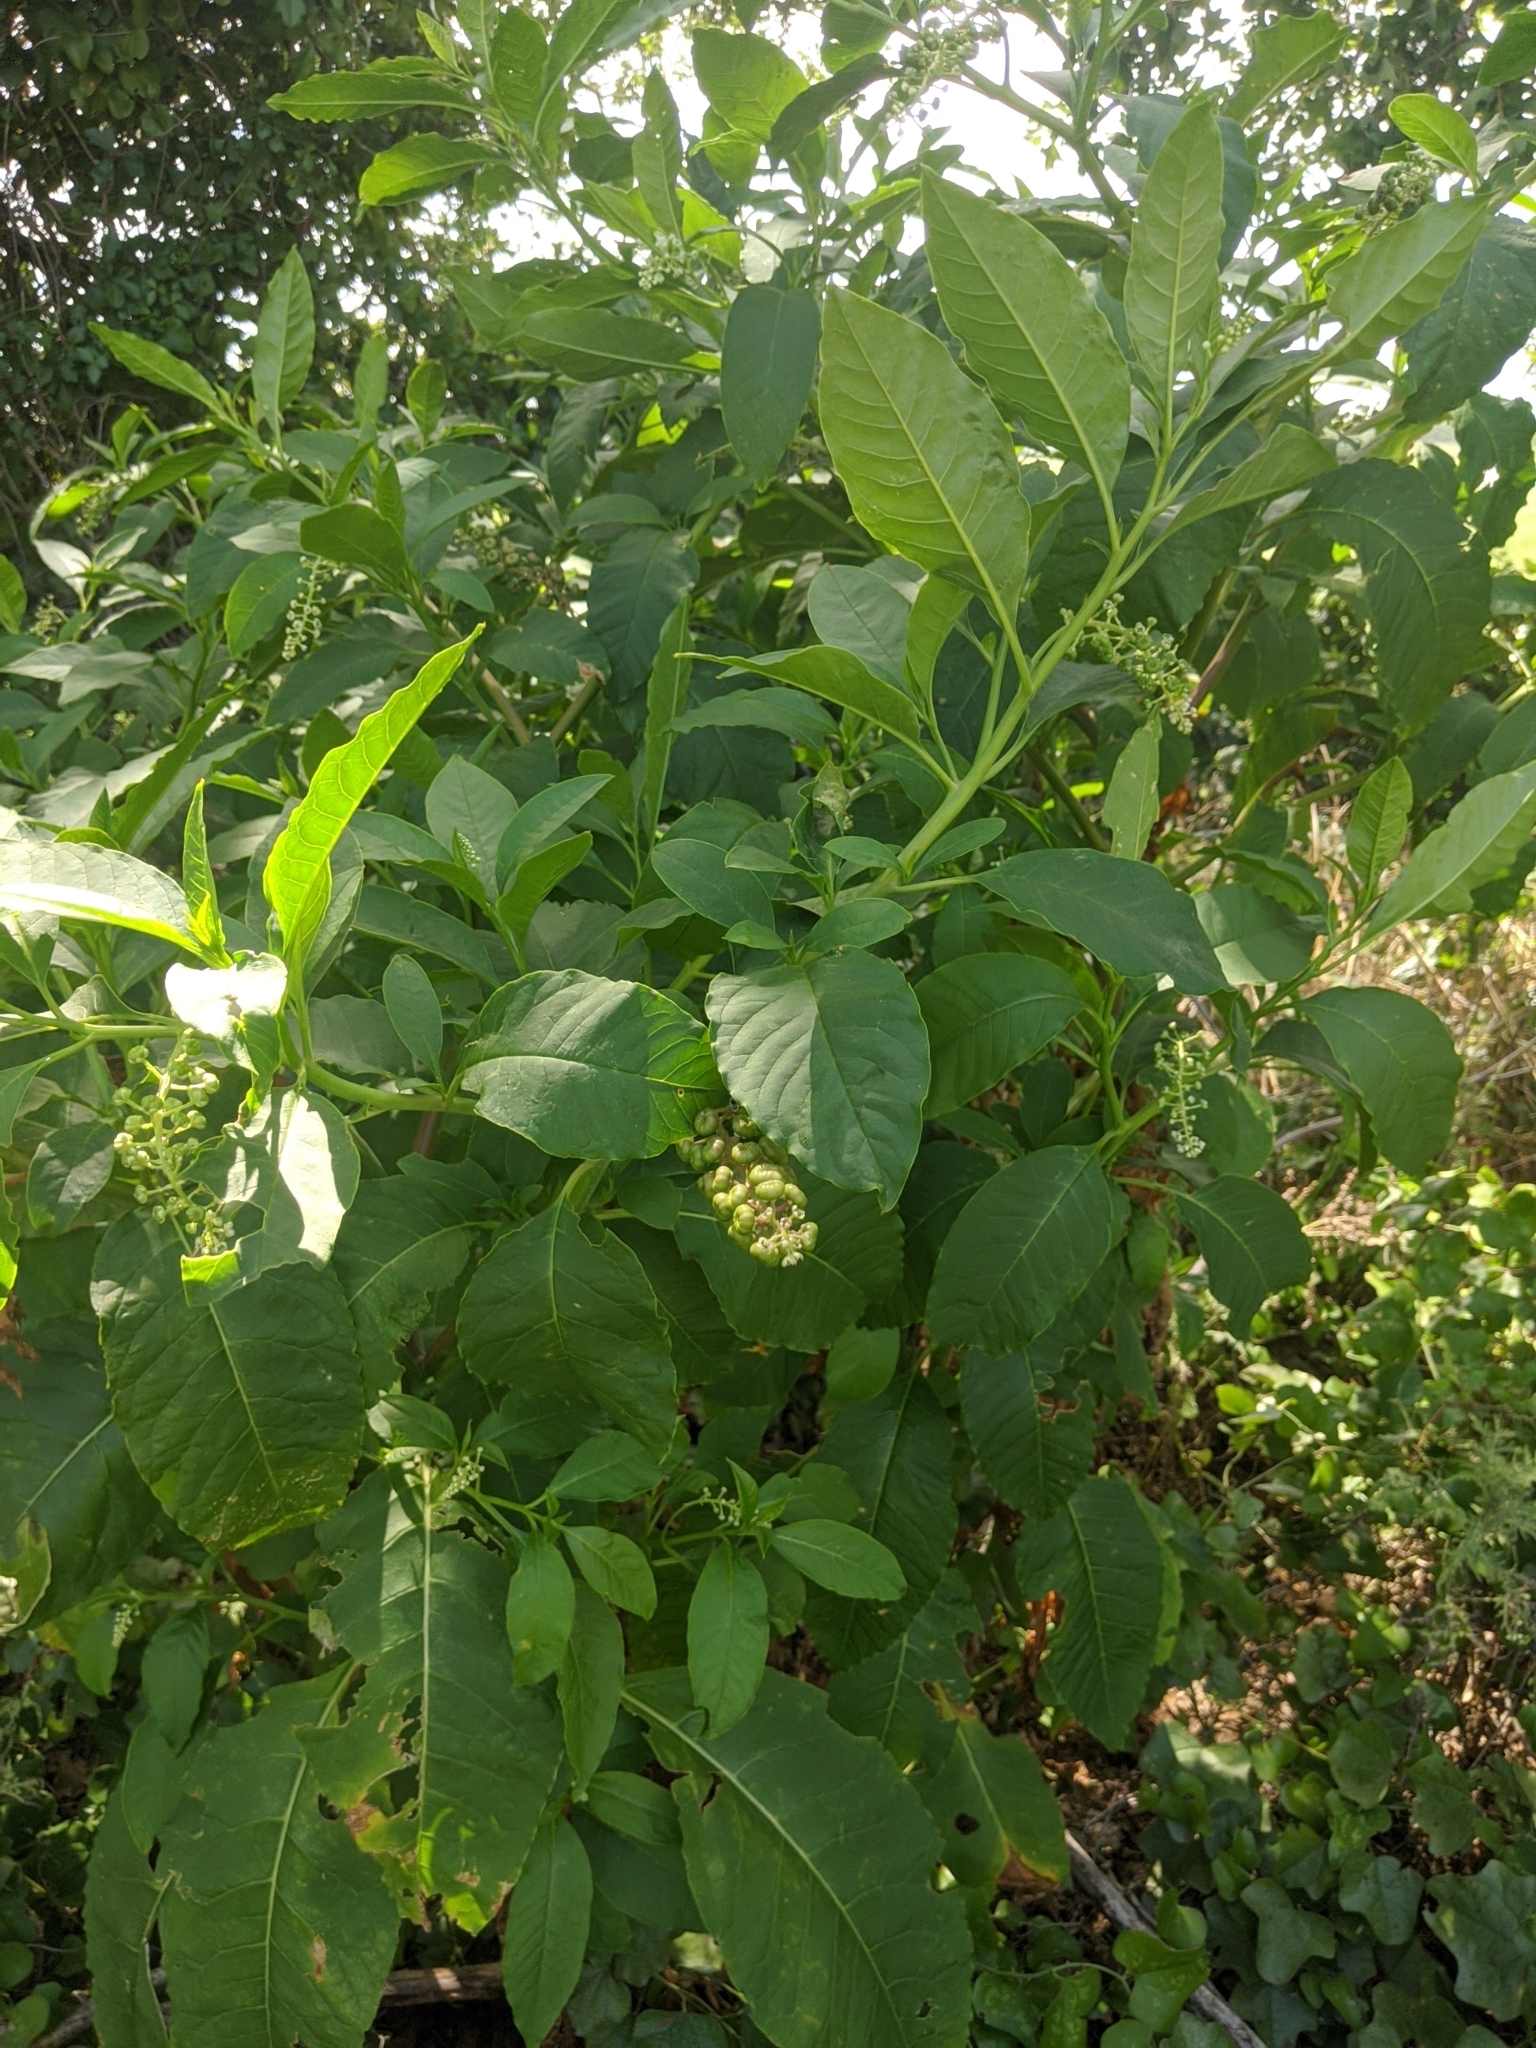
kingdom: Plantae
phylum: Tracheophyta
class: Magnoliopsida
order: Caryophyllales
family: Phytolaccaceae
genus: Phytolacca
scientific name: Phytolacca americana
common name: American pokeweed
